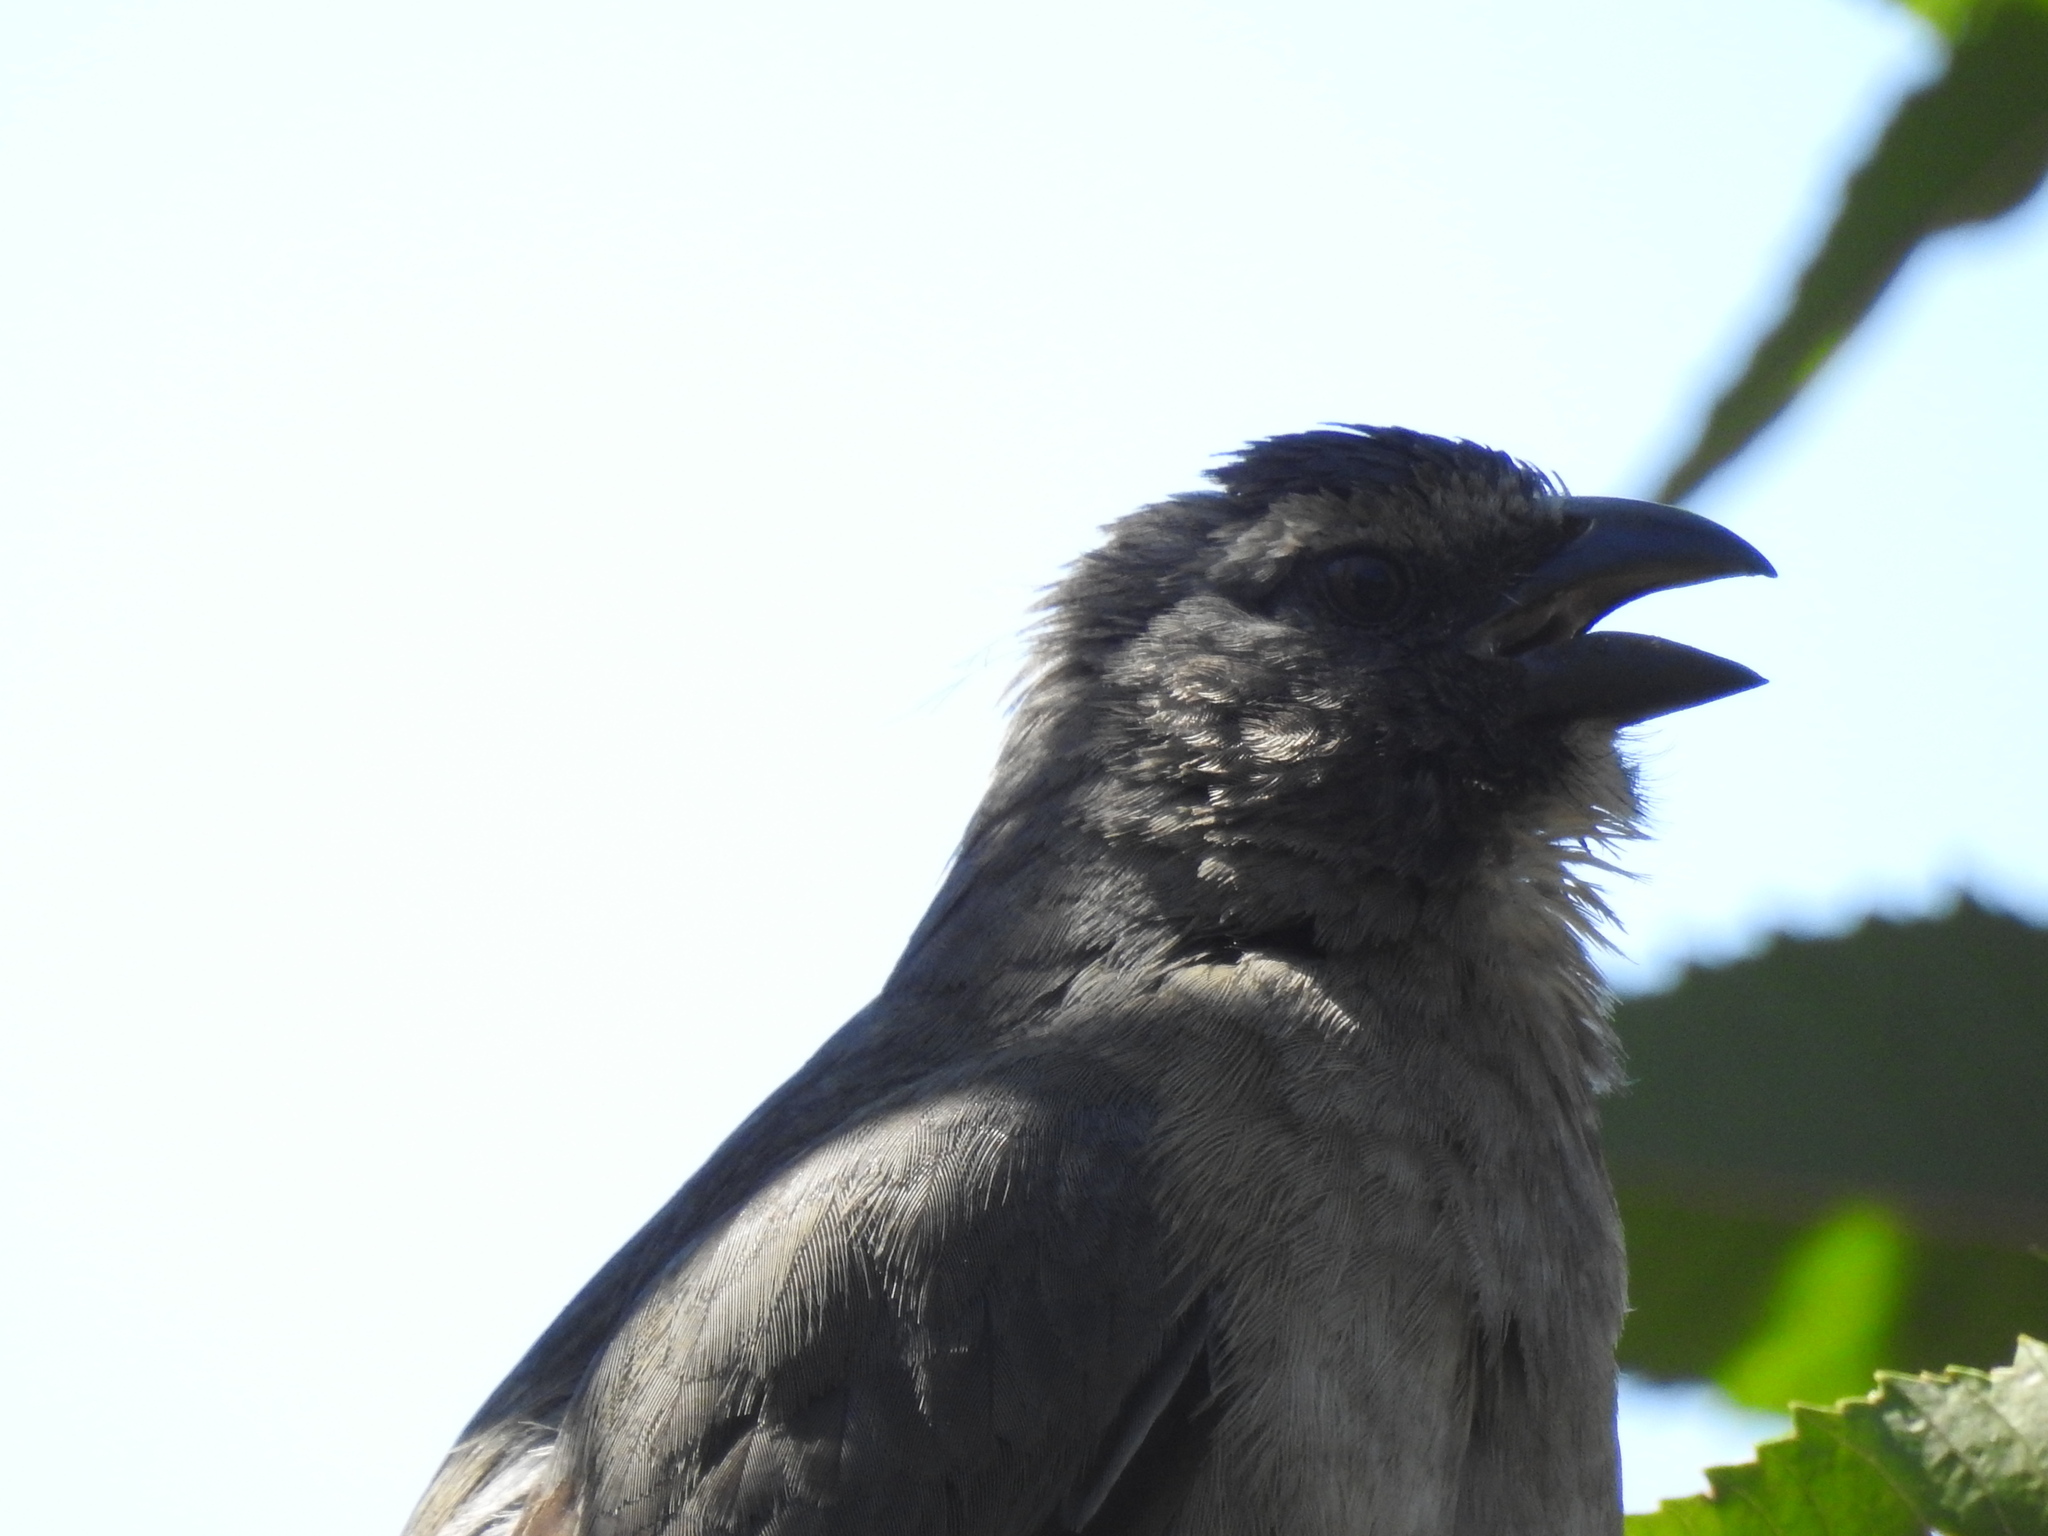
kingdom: Animalia
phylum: Chordata
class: Aves
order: Passeriformes
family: Thraupidae
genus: Saltator
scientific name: Saltator coerulescens
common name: Grayish saltator
